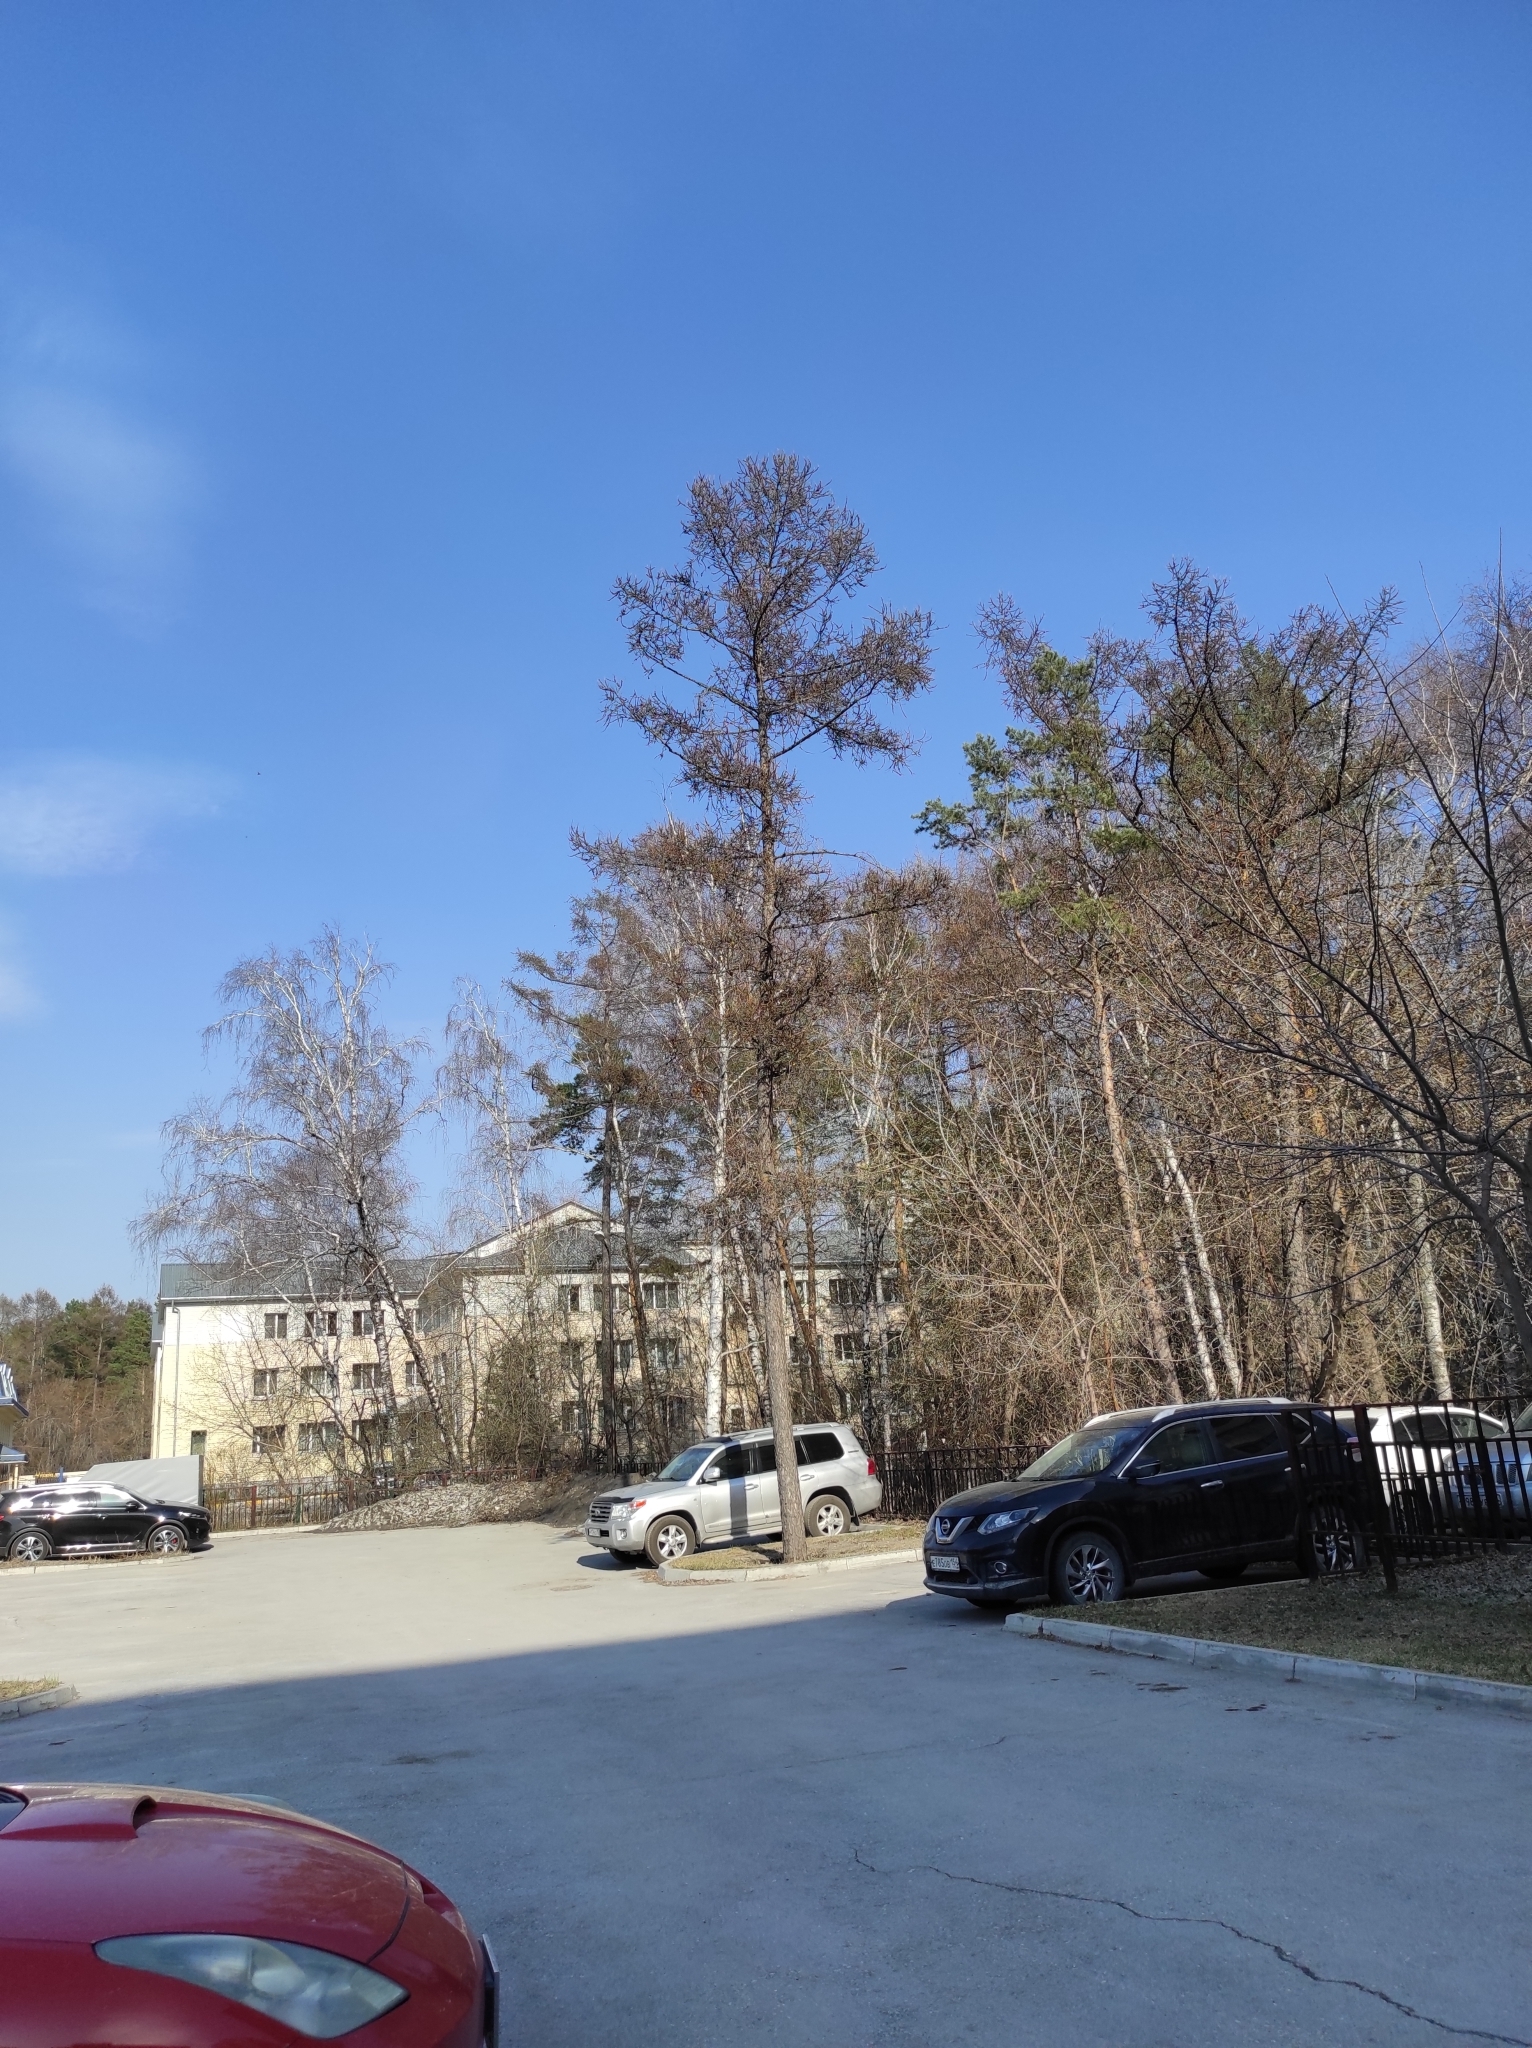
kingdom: Plantae
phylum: Tracheophyta
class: Pinopsida
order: Pinales
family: Pinaceae
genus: Larix
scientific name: Larix sibirica
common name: Siberian larch
